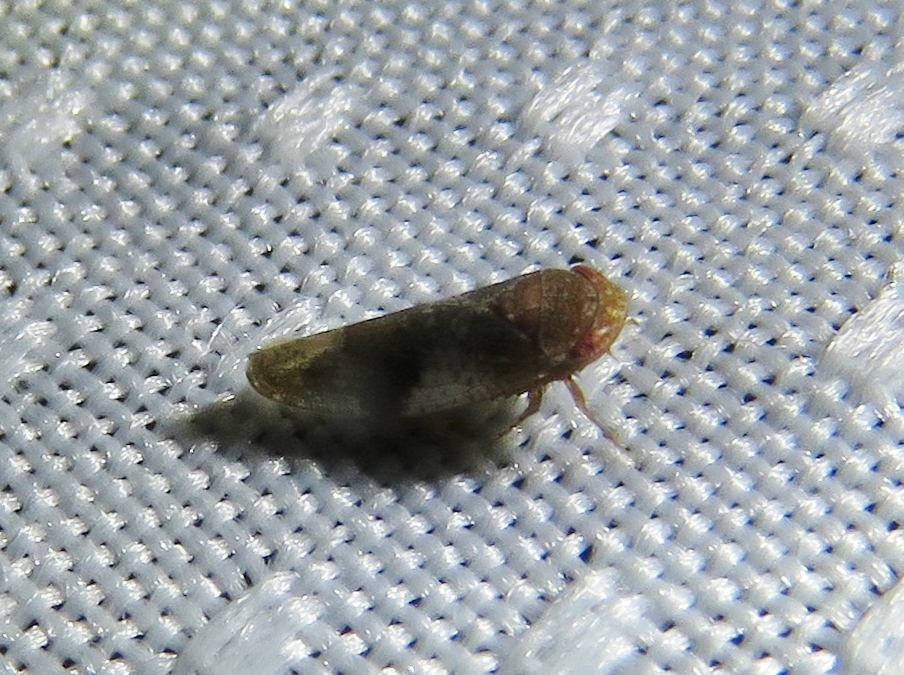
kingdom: Animalia
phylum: Arthropoda
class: Insecta
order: Hemiptera
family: Cicadellidae
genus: Norvellina
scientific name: Norvellina helenae
